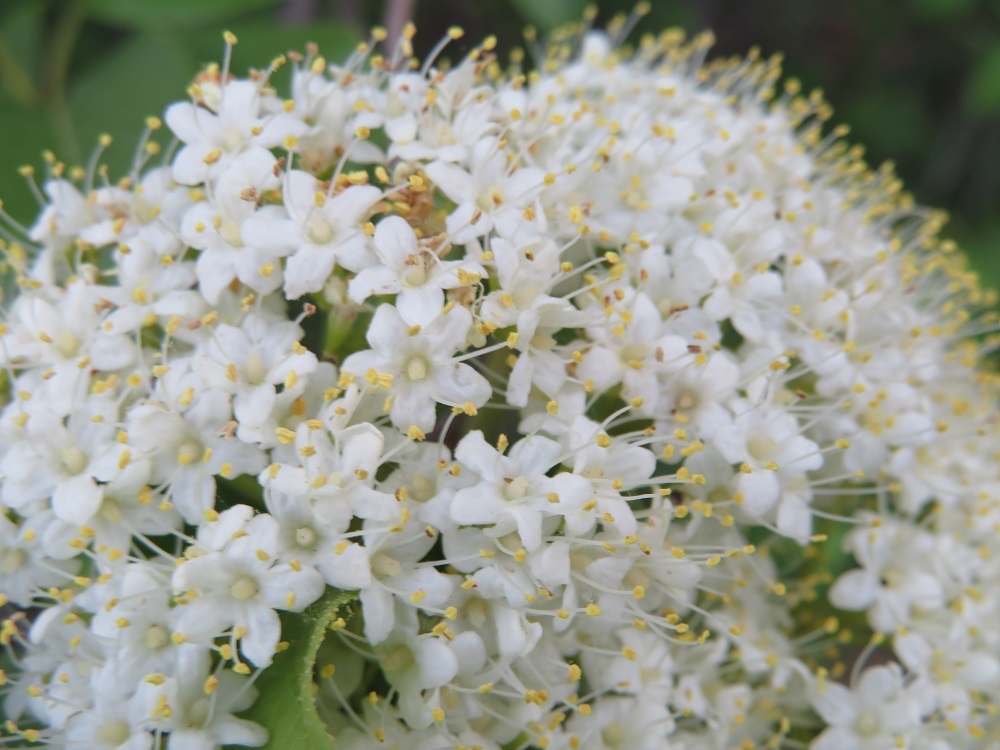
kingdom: Plantae
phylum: Tracheophyta
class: Magnoliopsida
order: Dipsacales
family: Viburnaceae
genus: Viburnum
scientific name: Viburnum lentago
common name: Black haw
